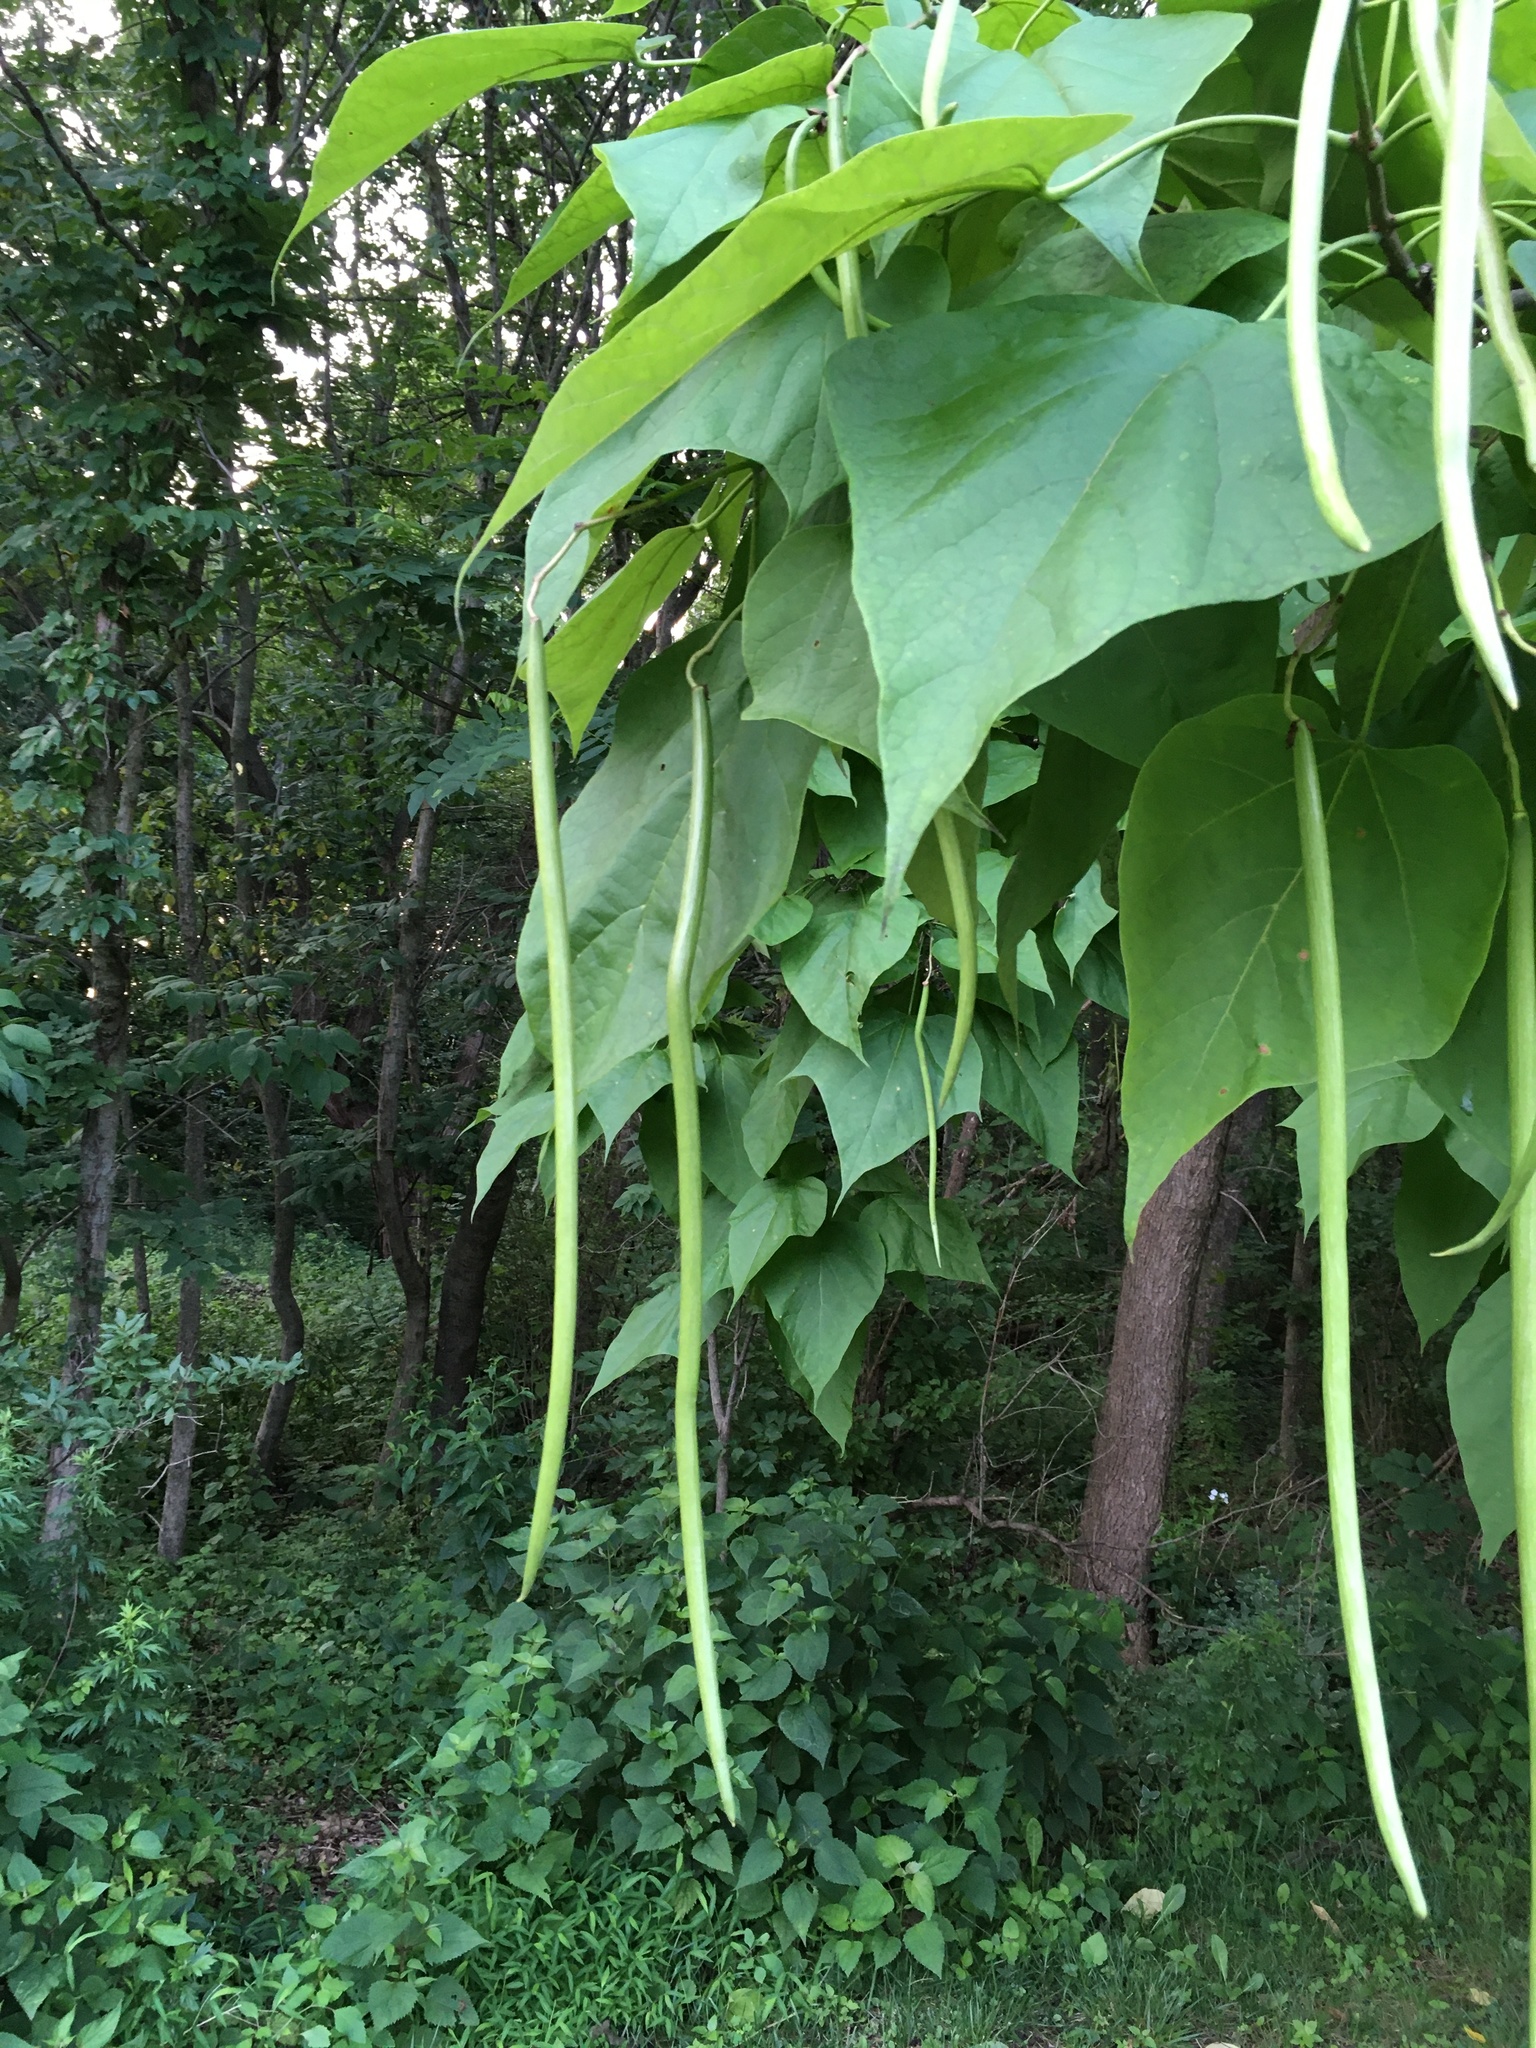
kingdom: Plantae
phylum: Tracheophyta
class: Magnoliopsida
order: Lamiales
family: Bignoniaceae
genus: Catalpa
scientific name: Catalpa speciosa
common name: Northern catalpa
